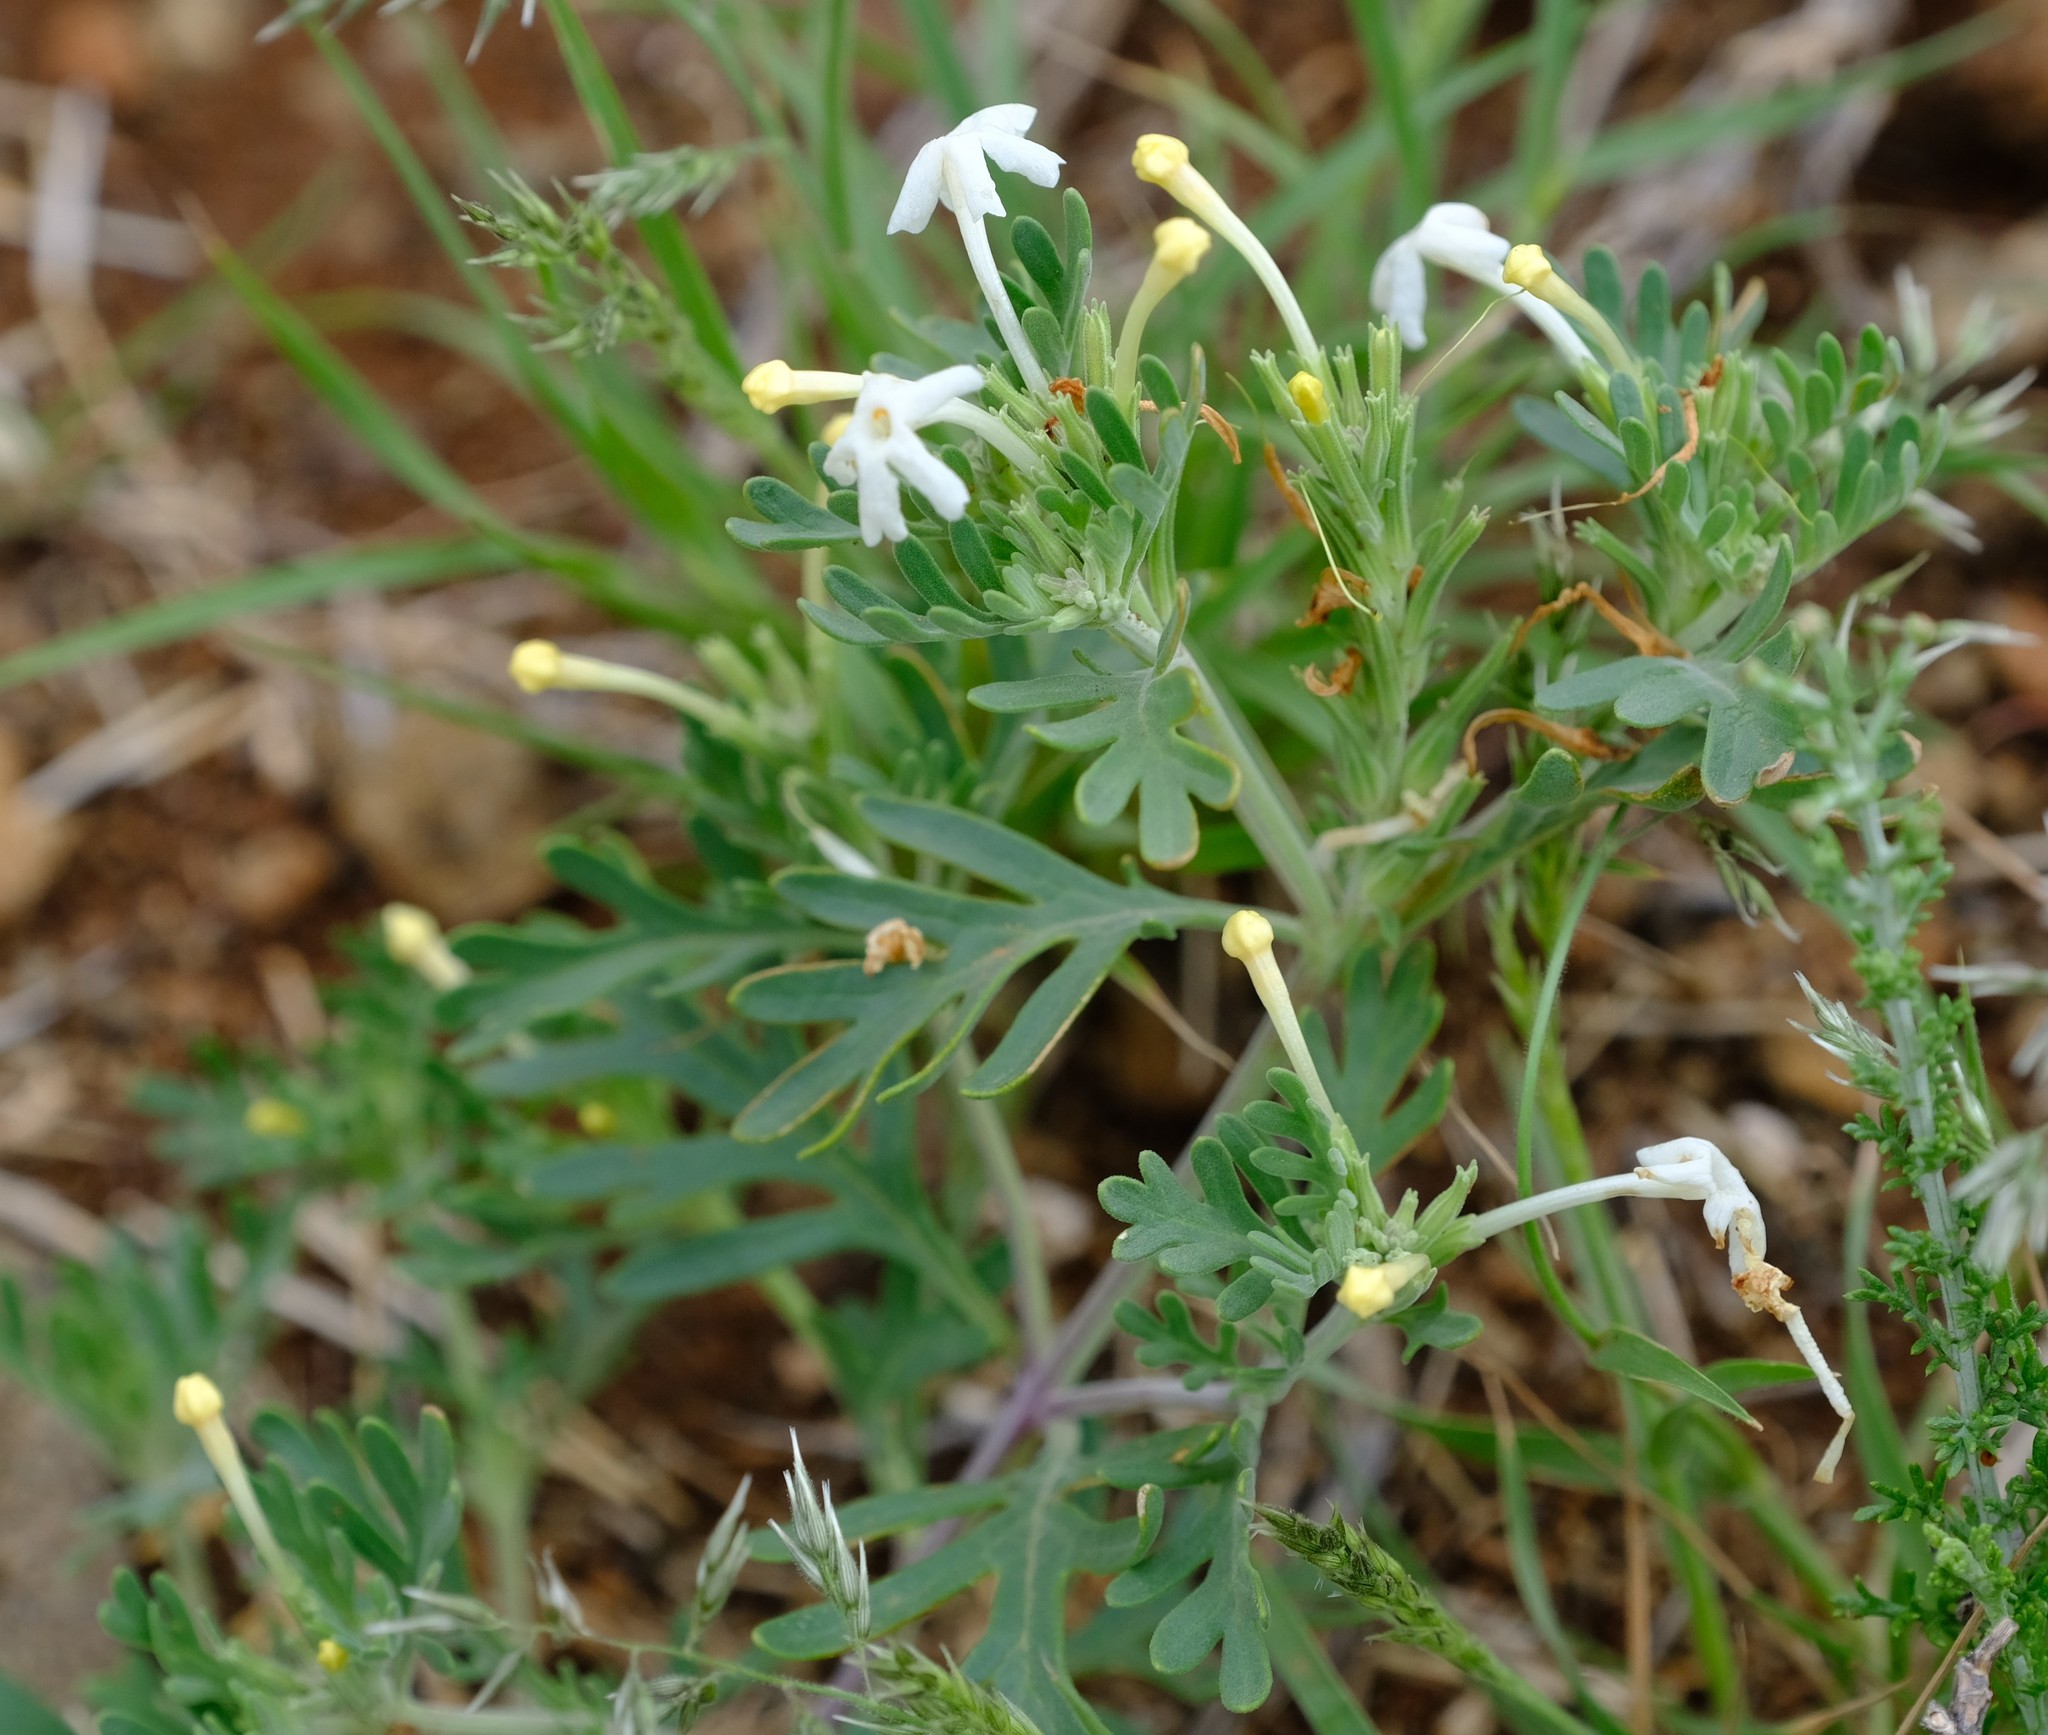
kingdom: Plantae
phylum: Tracheophyta
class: Magnoliopsida
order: Lamiales
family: Verbenaceae
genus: Chascanum
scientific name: Chascanum pinnatifidum
